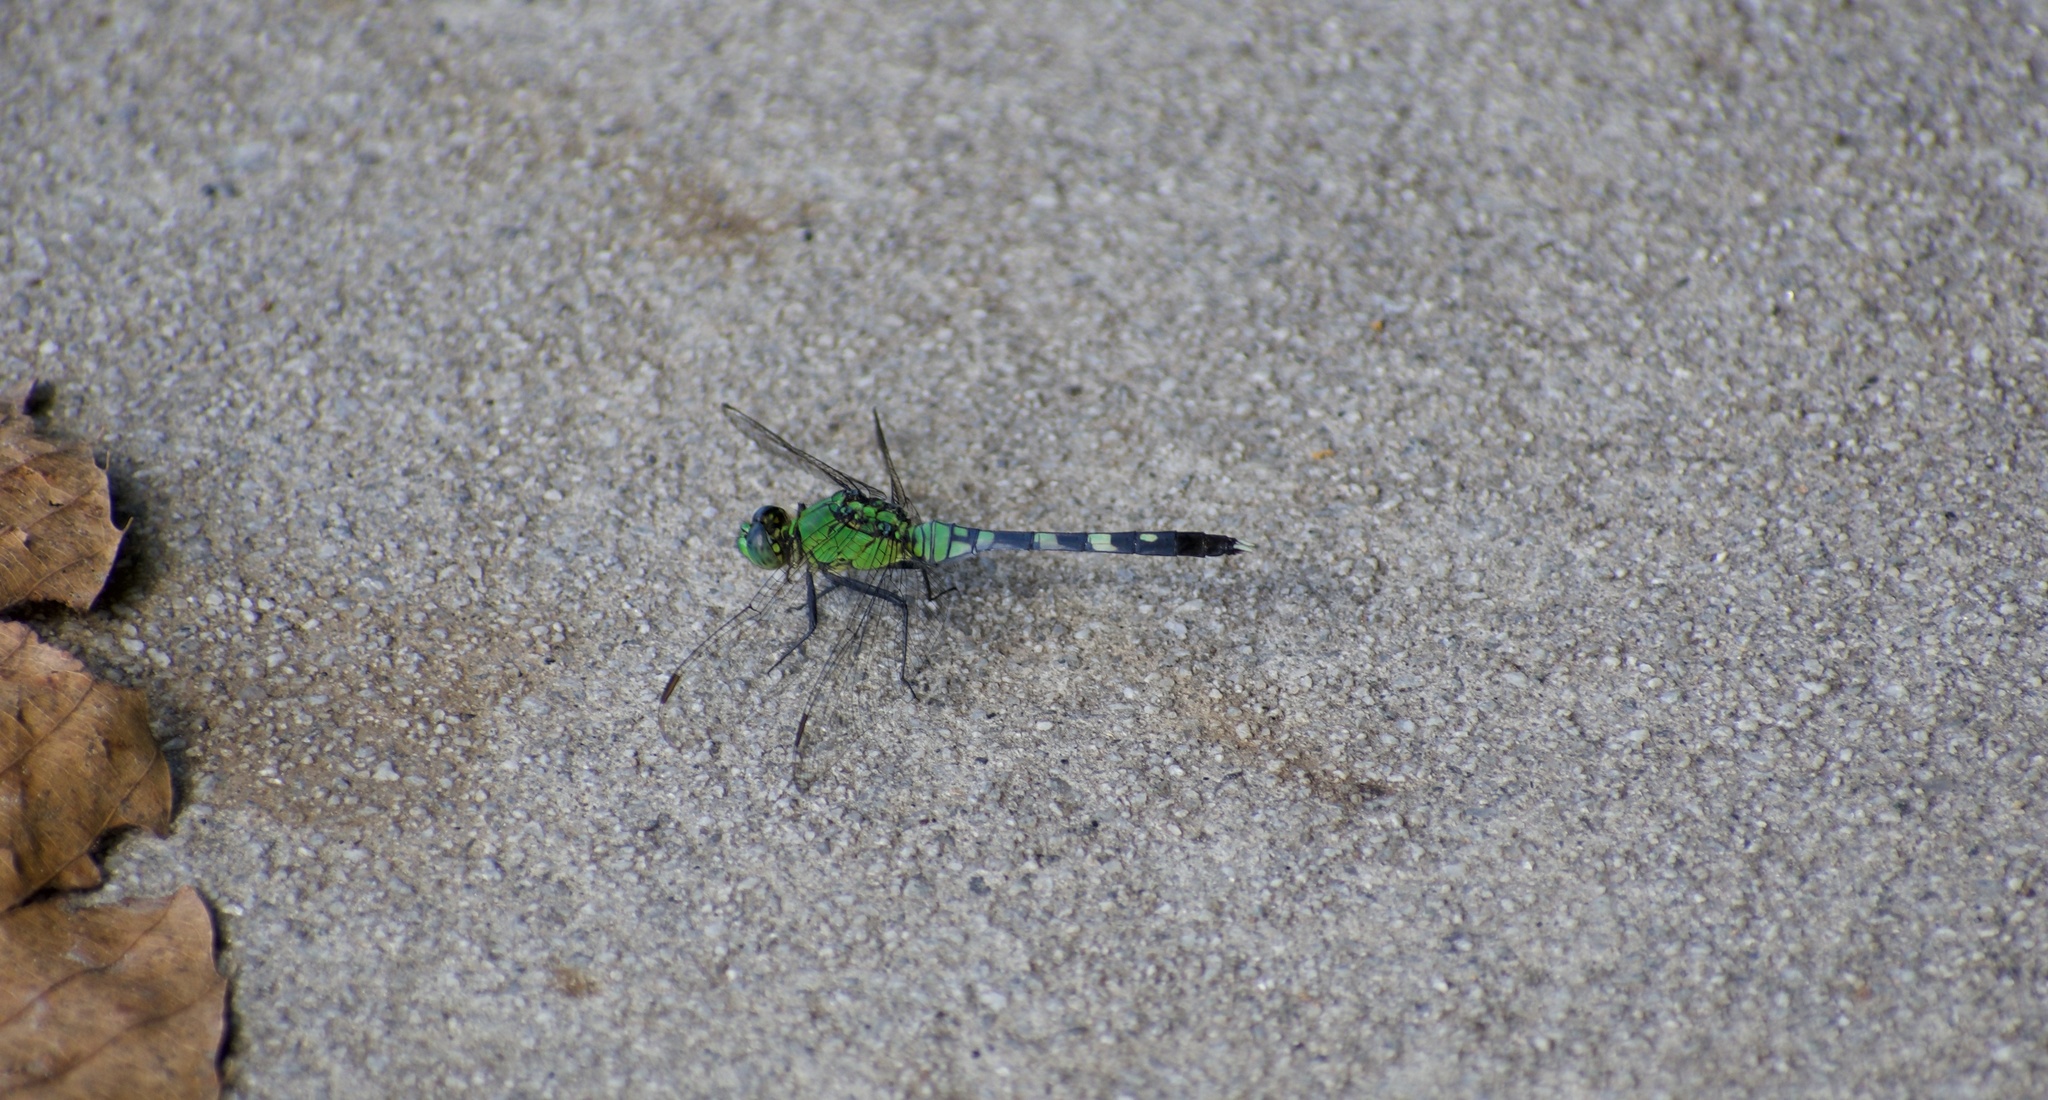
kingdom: Animalia
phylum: Arthropoda
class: Insecta
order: Odonata
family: Libellulidae
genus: Erythemis
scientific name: Erythemis simplicicollis
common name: Eastern pondhawk
